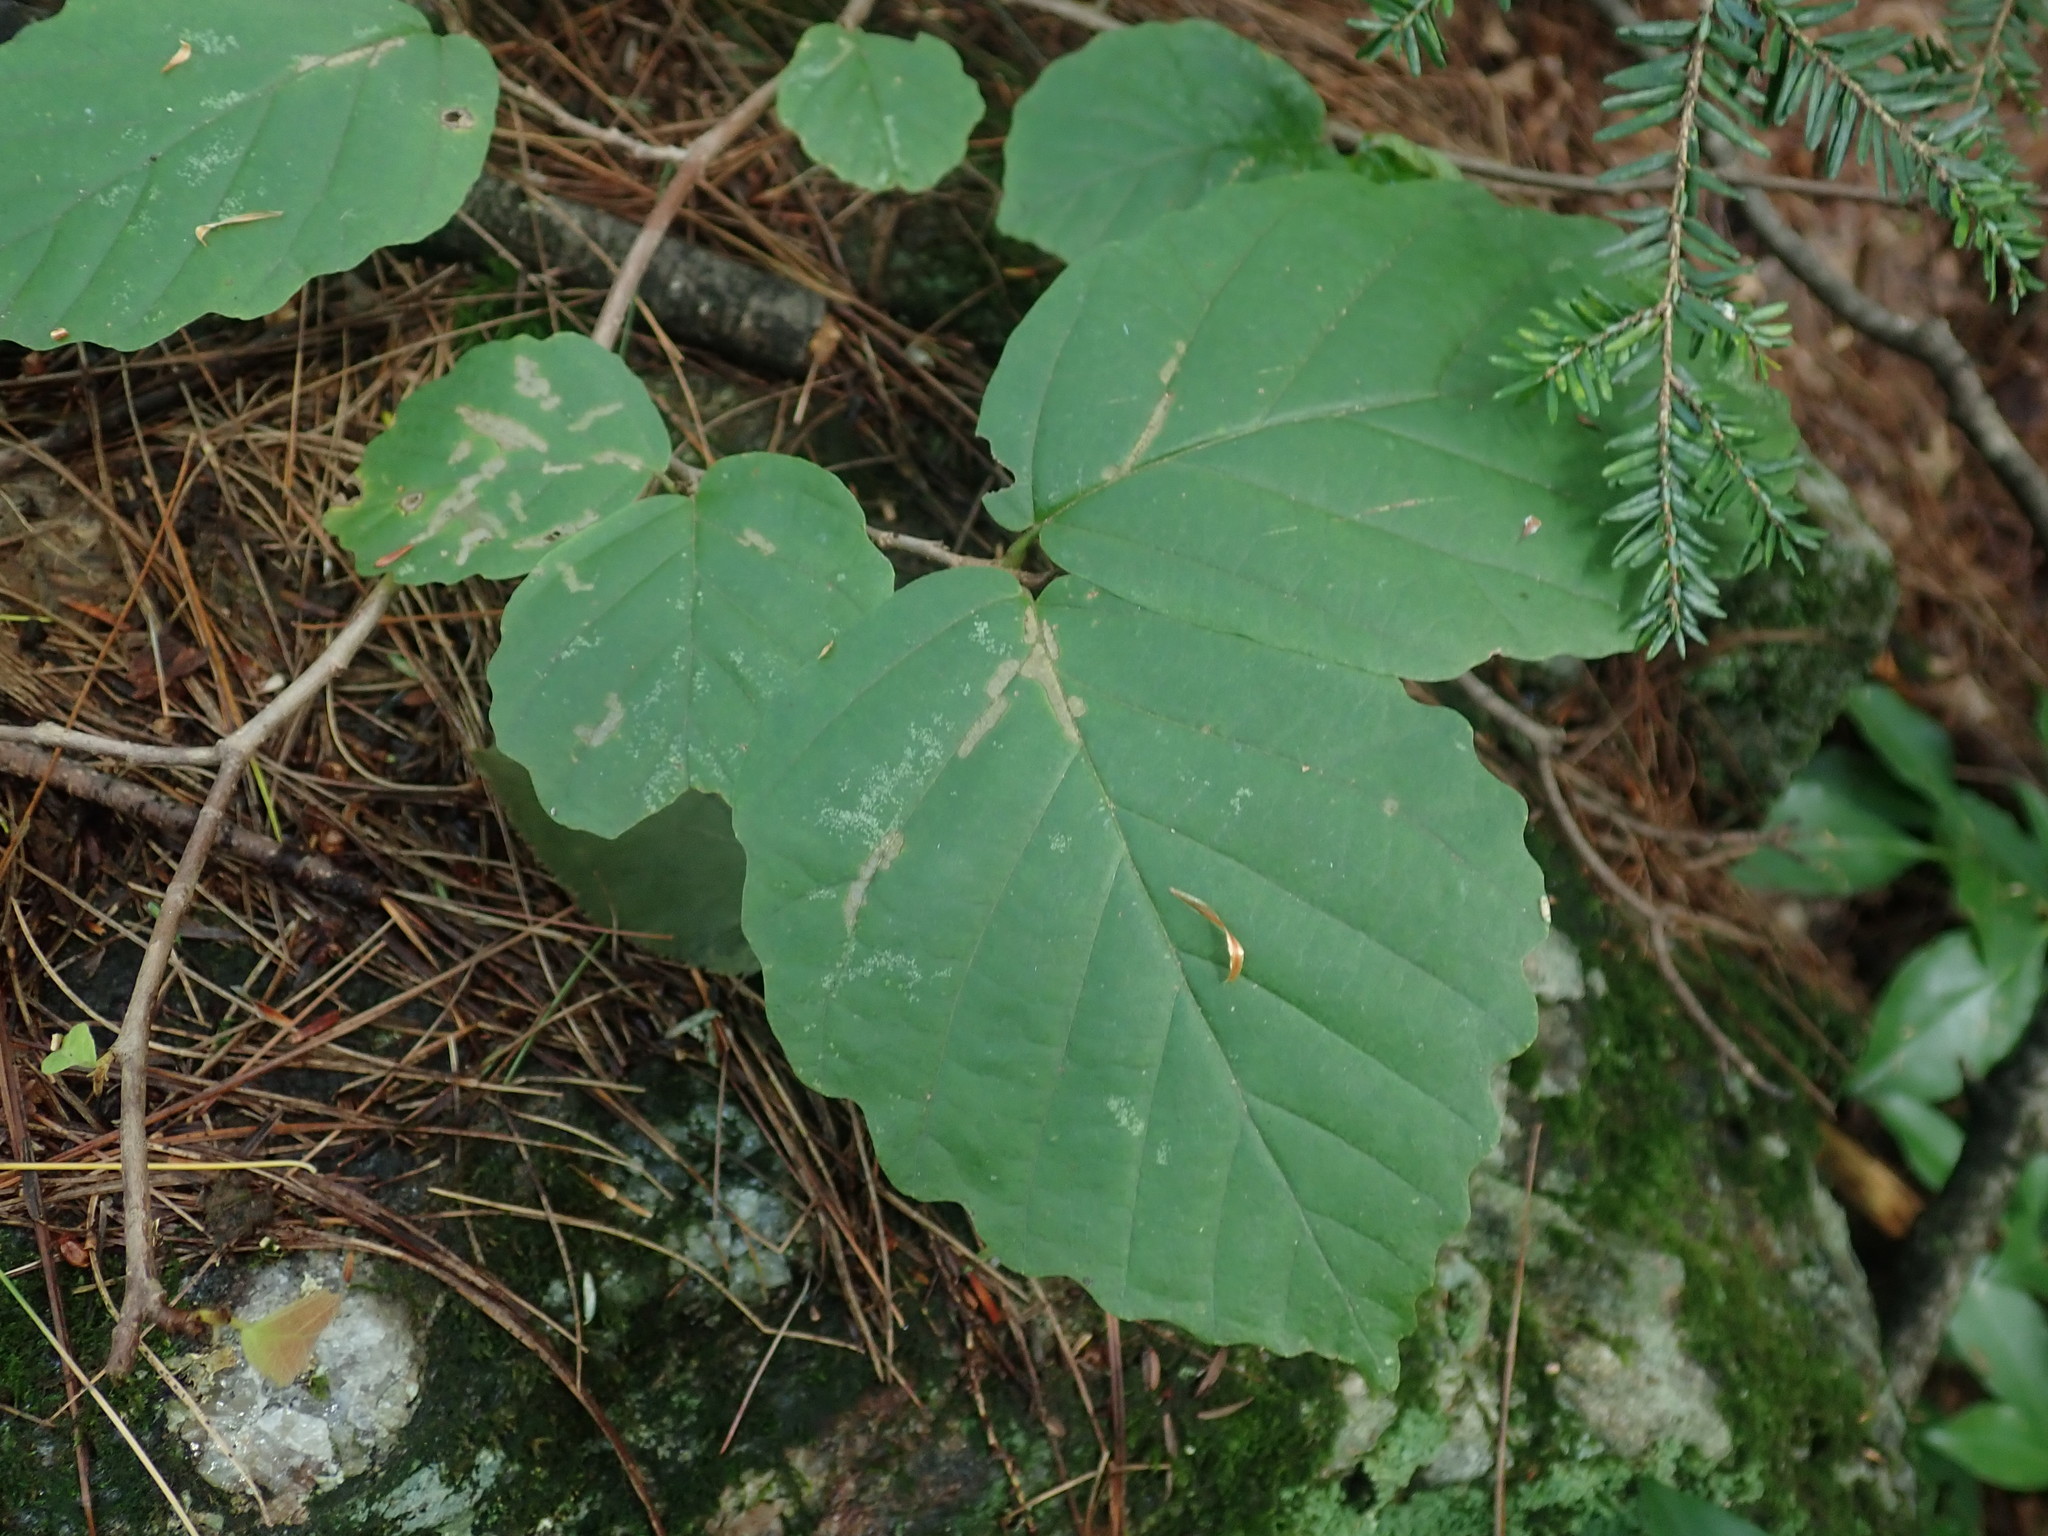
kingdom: Plantae
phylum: Tracheophyta
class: Magnoliopsida
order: Saxifragales
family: Hamamelidaceae
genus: Hamamelis
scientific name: Hamamelis virginiana
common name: Witch-hazel
